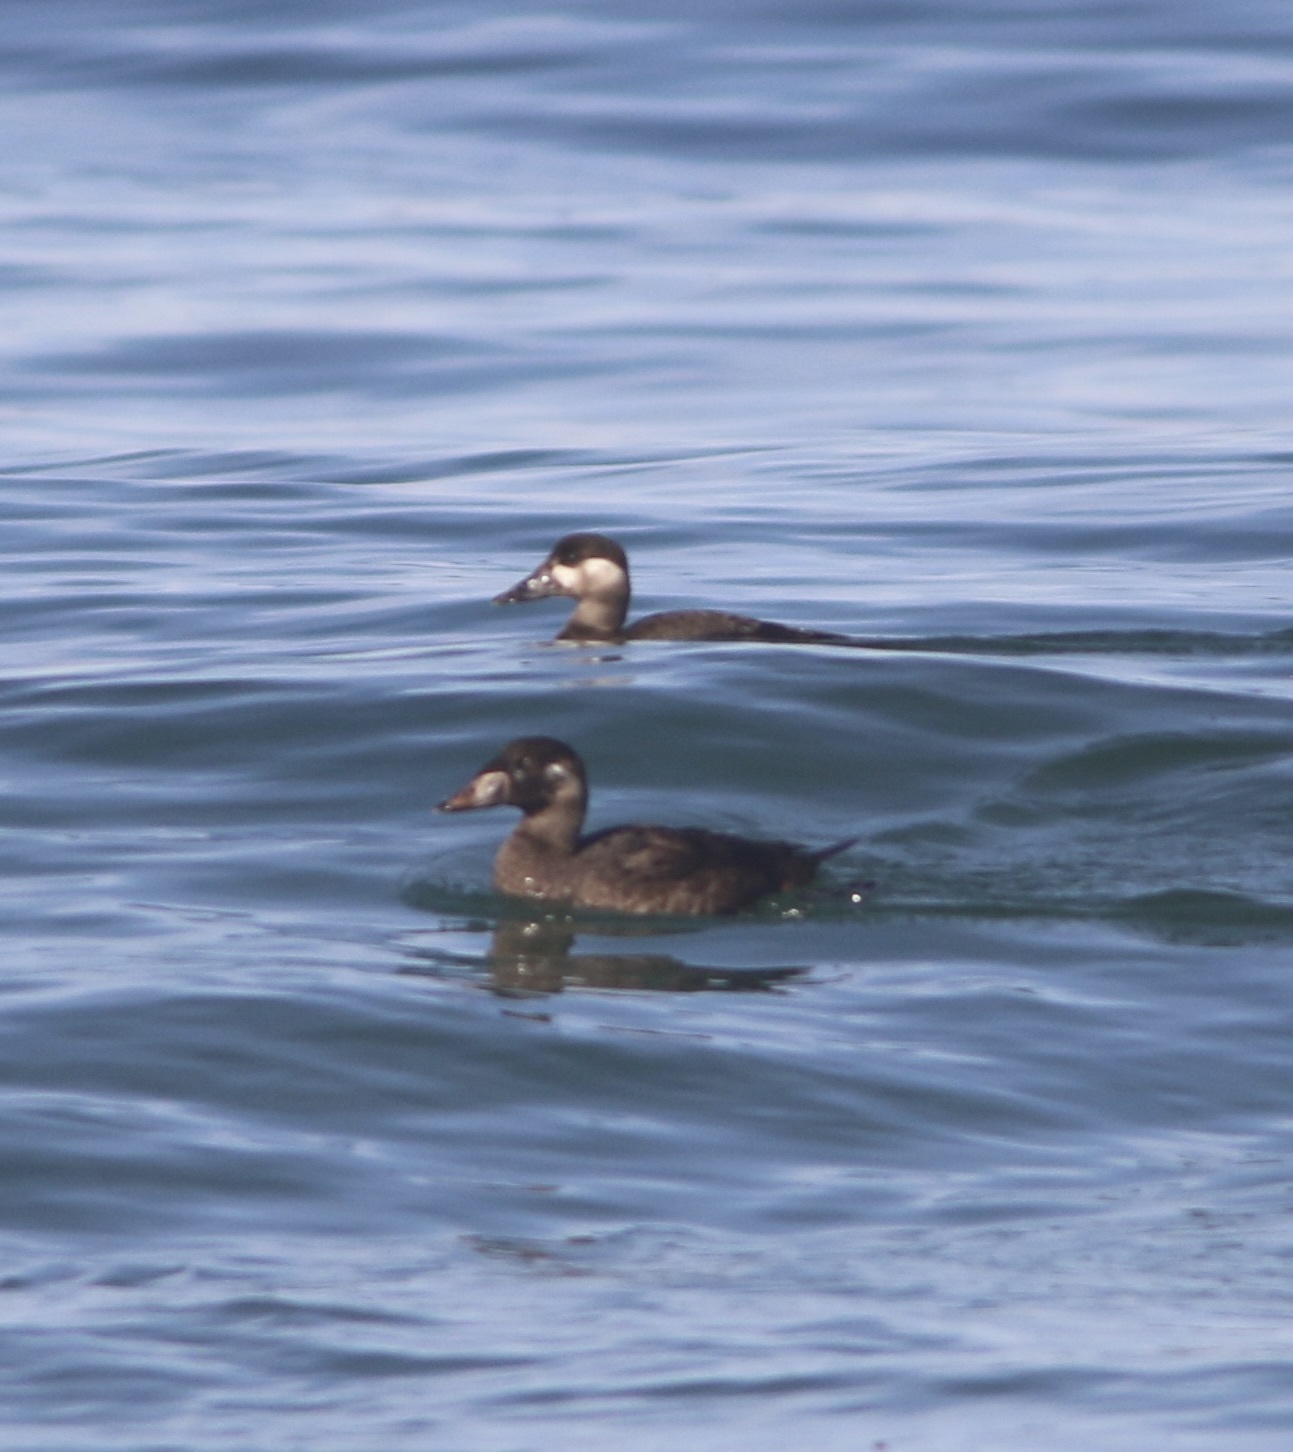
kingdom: Animalia
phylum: Chordata
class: Aves
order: Anseriformes
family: Anatidae
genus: Melanitta
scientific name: Melanitta perspicillata
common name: Surf scoter
